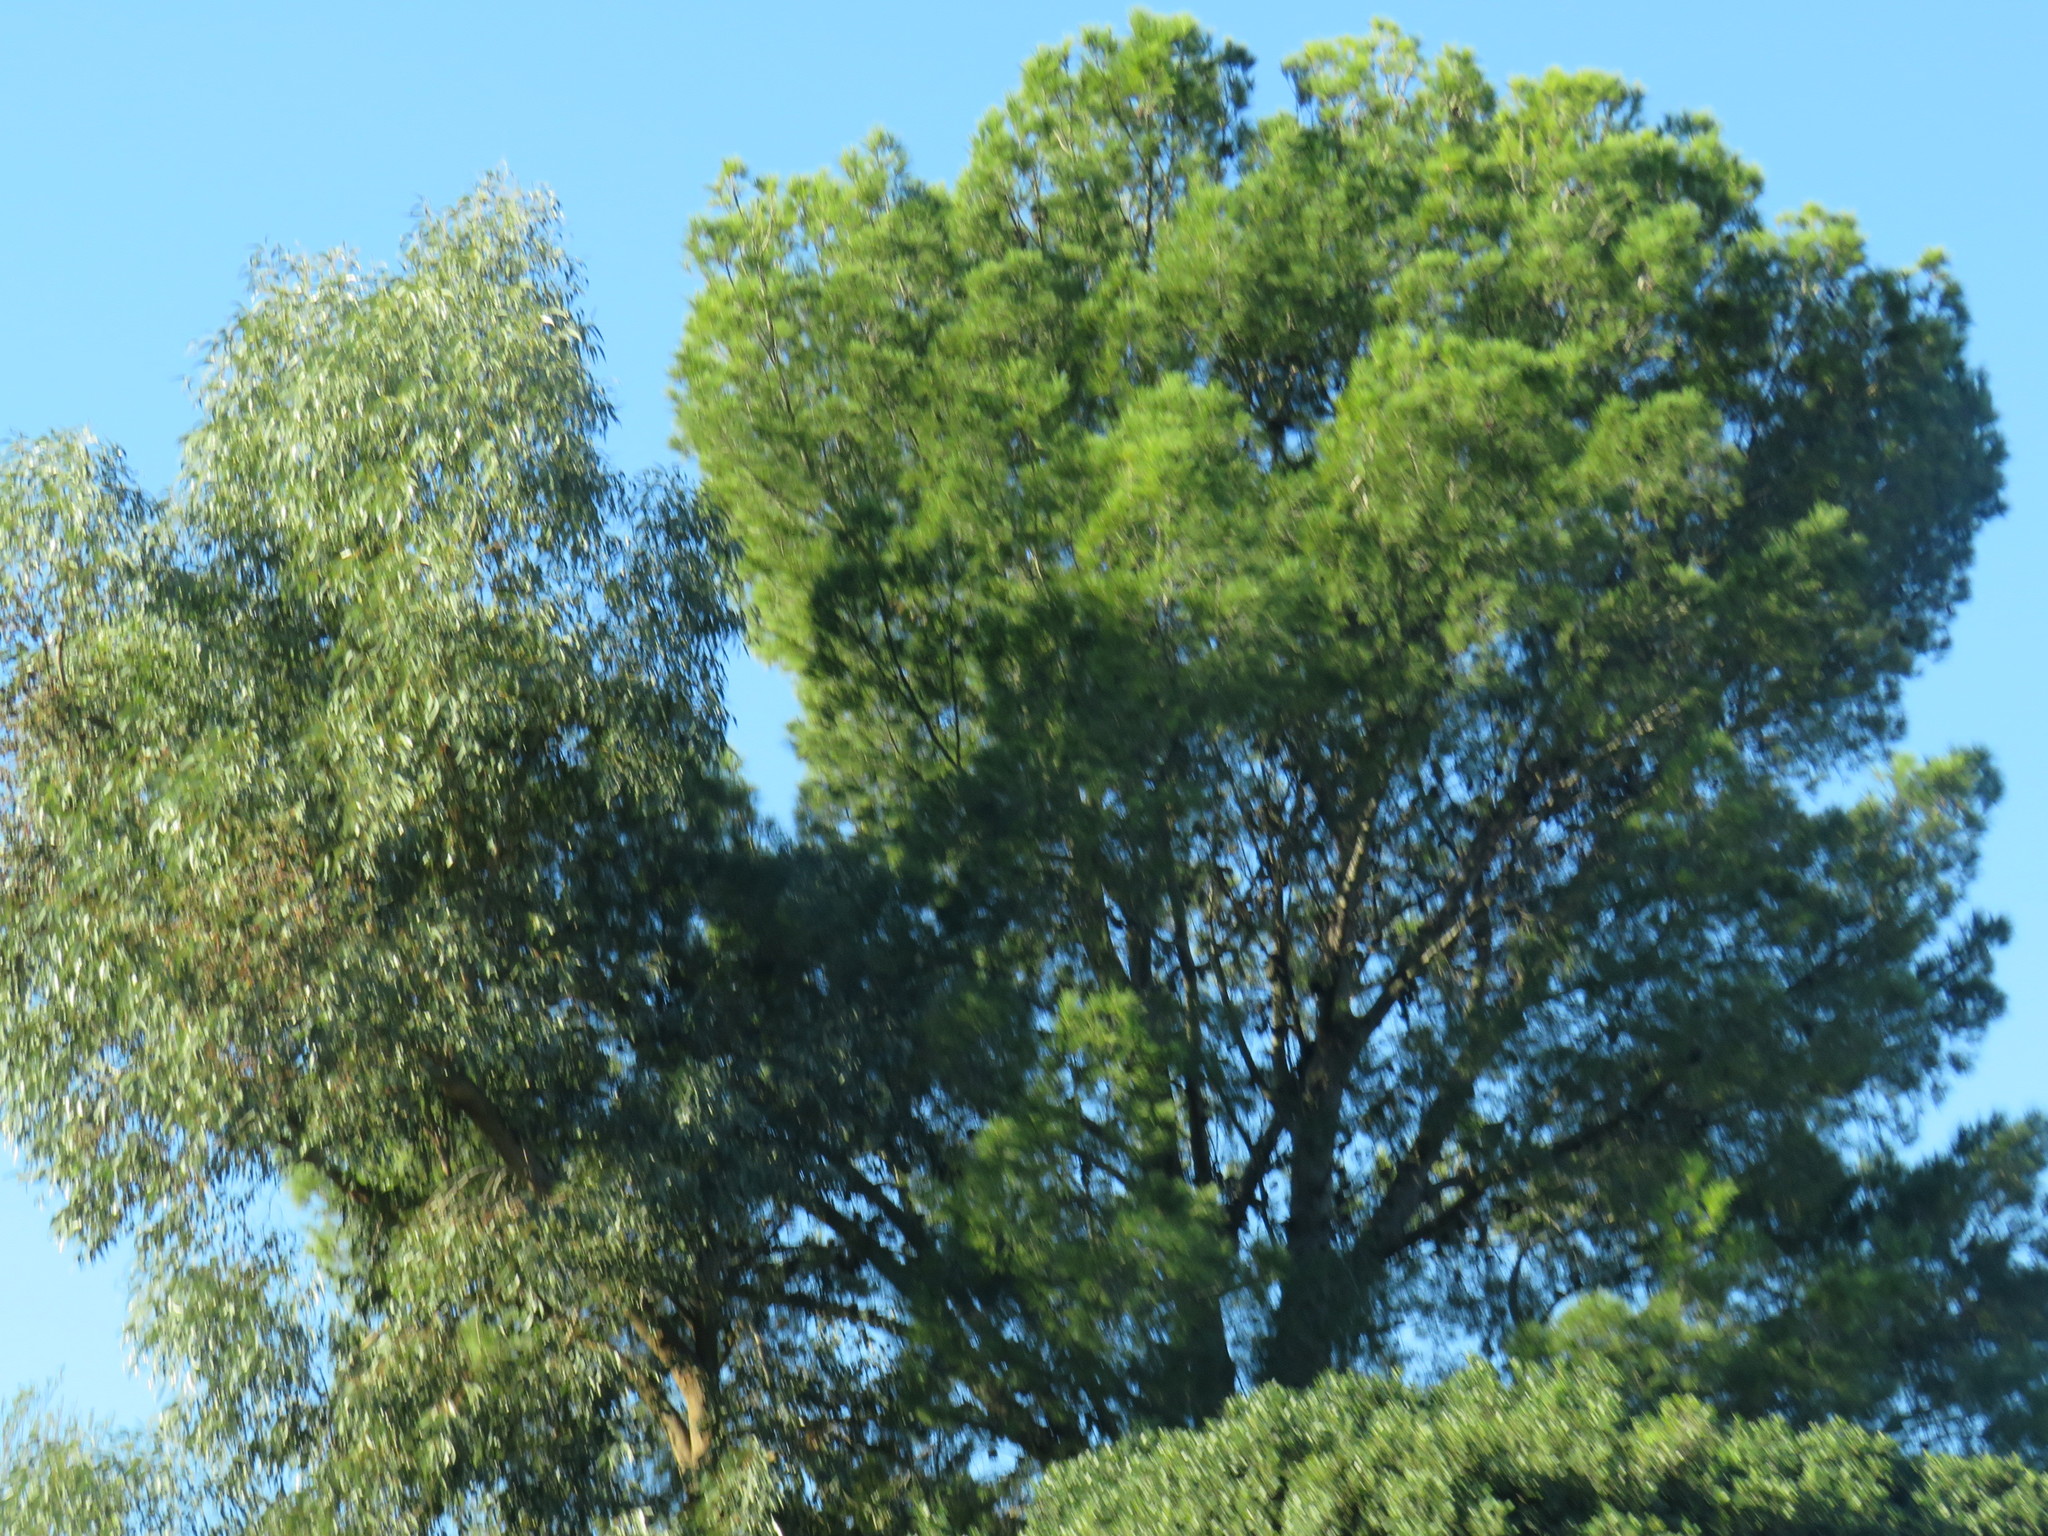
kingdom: Plantae
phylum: Tracheophyta
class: Pinopsida
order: Pinales
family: Pinaceae
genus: Pinus
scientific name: Pinus halepensis
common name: Aleppo pine
